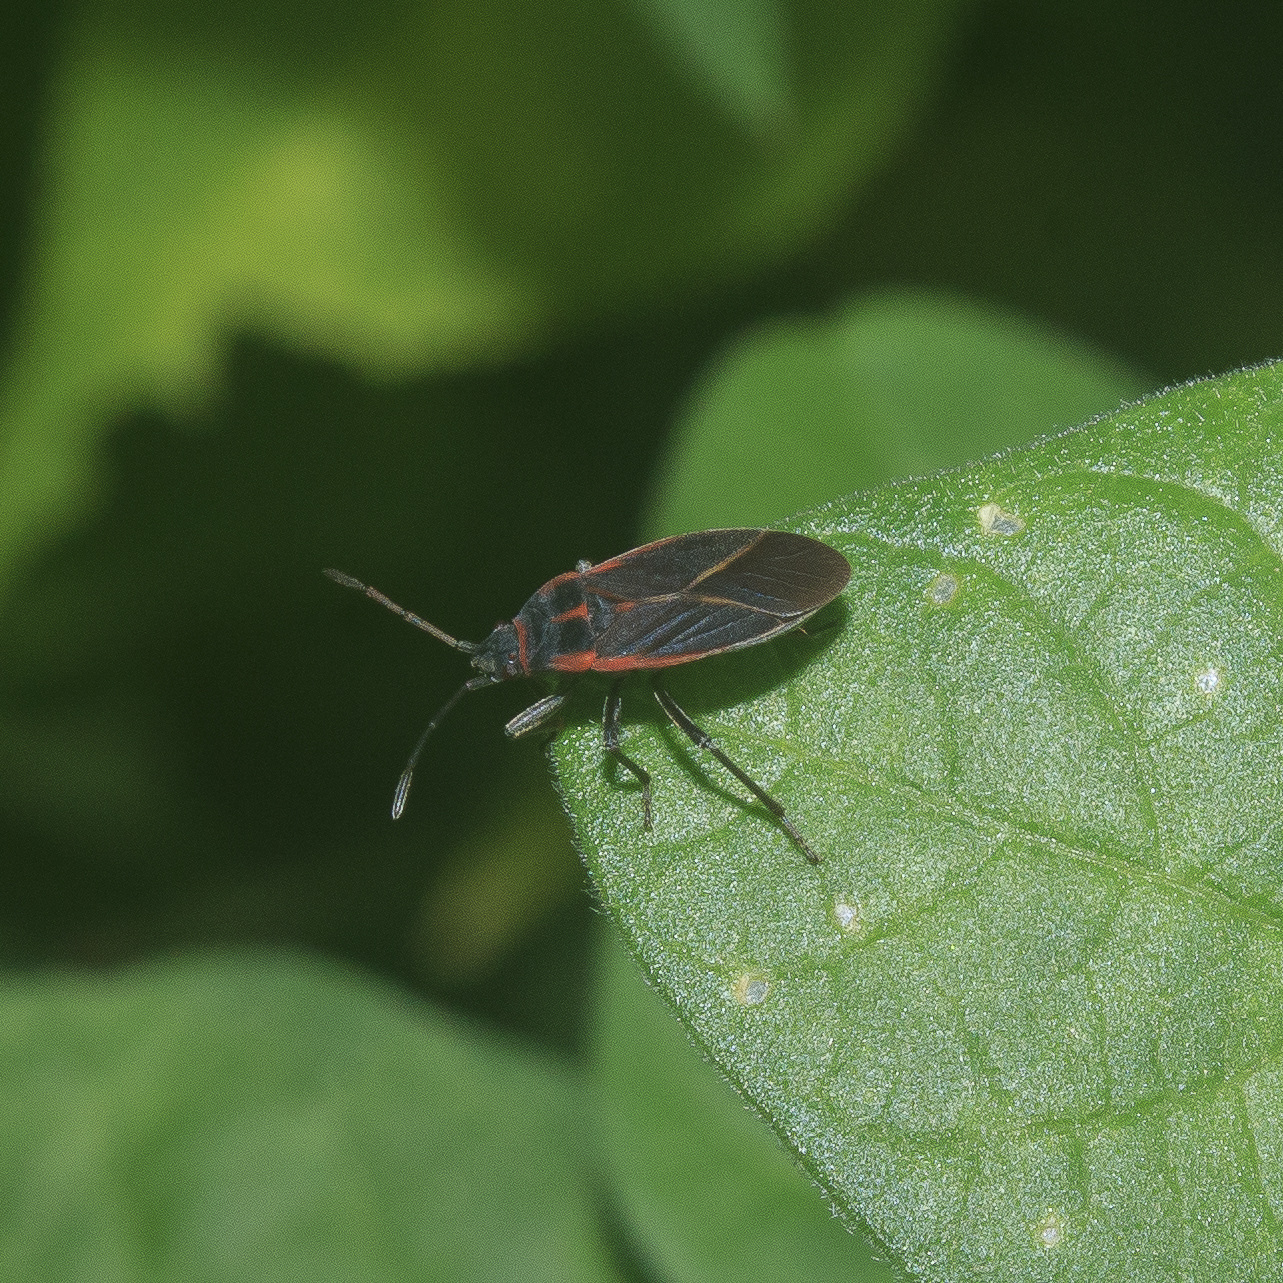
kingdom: Animalia
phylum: Arthropoda
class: Insecta
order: Hemiptera
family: Lygaeidae
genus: Melacoryphus
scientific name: Melacoryphus circumlitus
